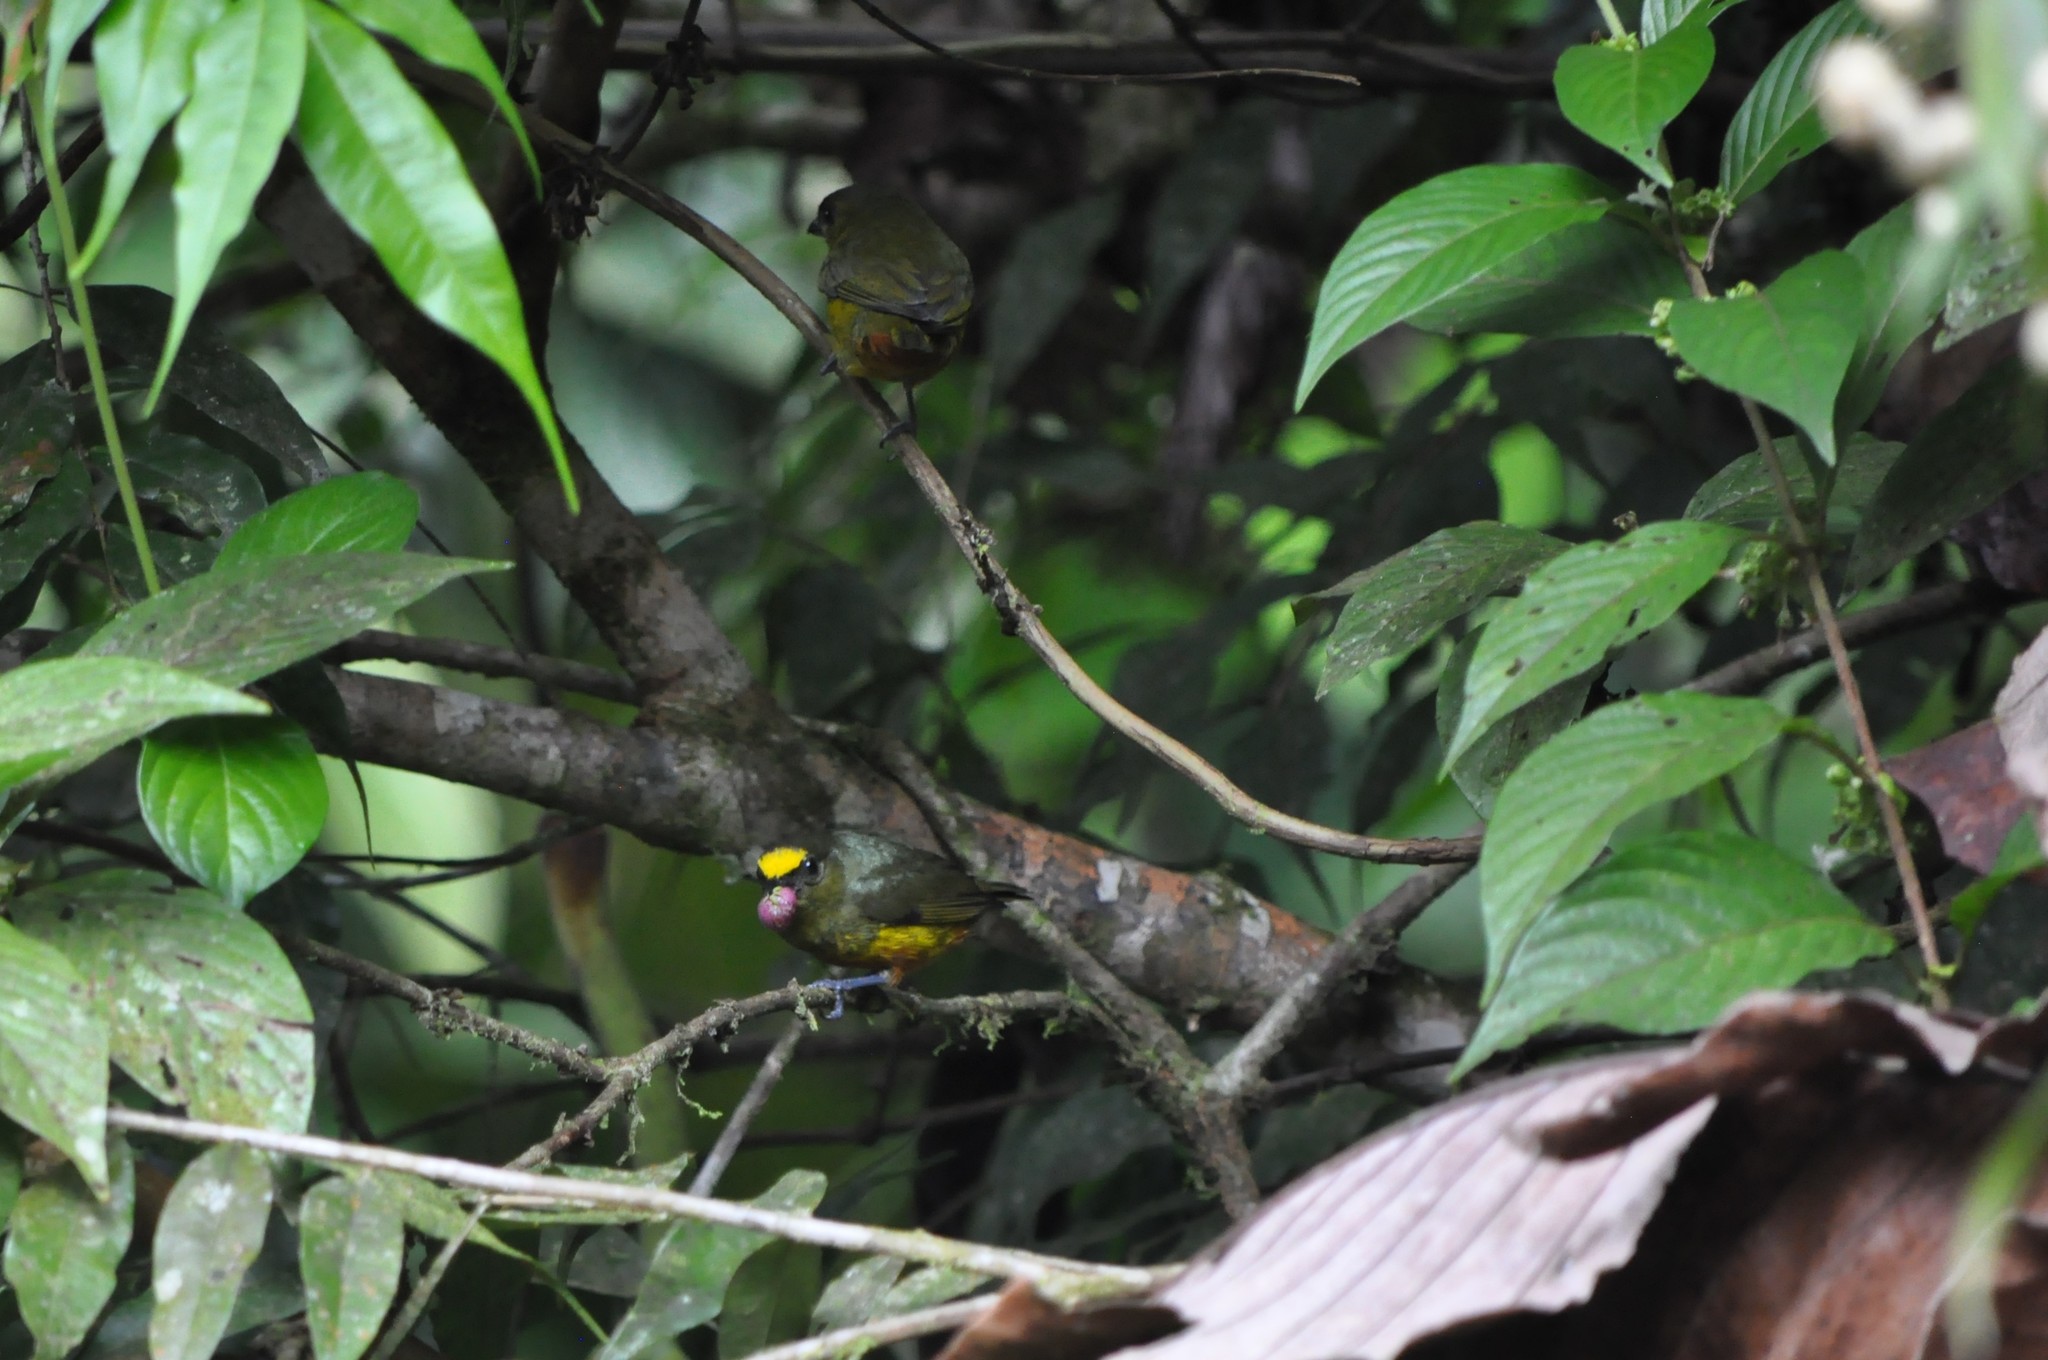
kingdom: Animalia
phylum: Chordata
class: Aves
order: Passeriformes
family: Fringillidae
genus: Euphonia
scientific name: Euphonia gouldi
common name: Olive-backed euphonia
